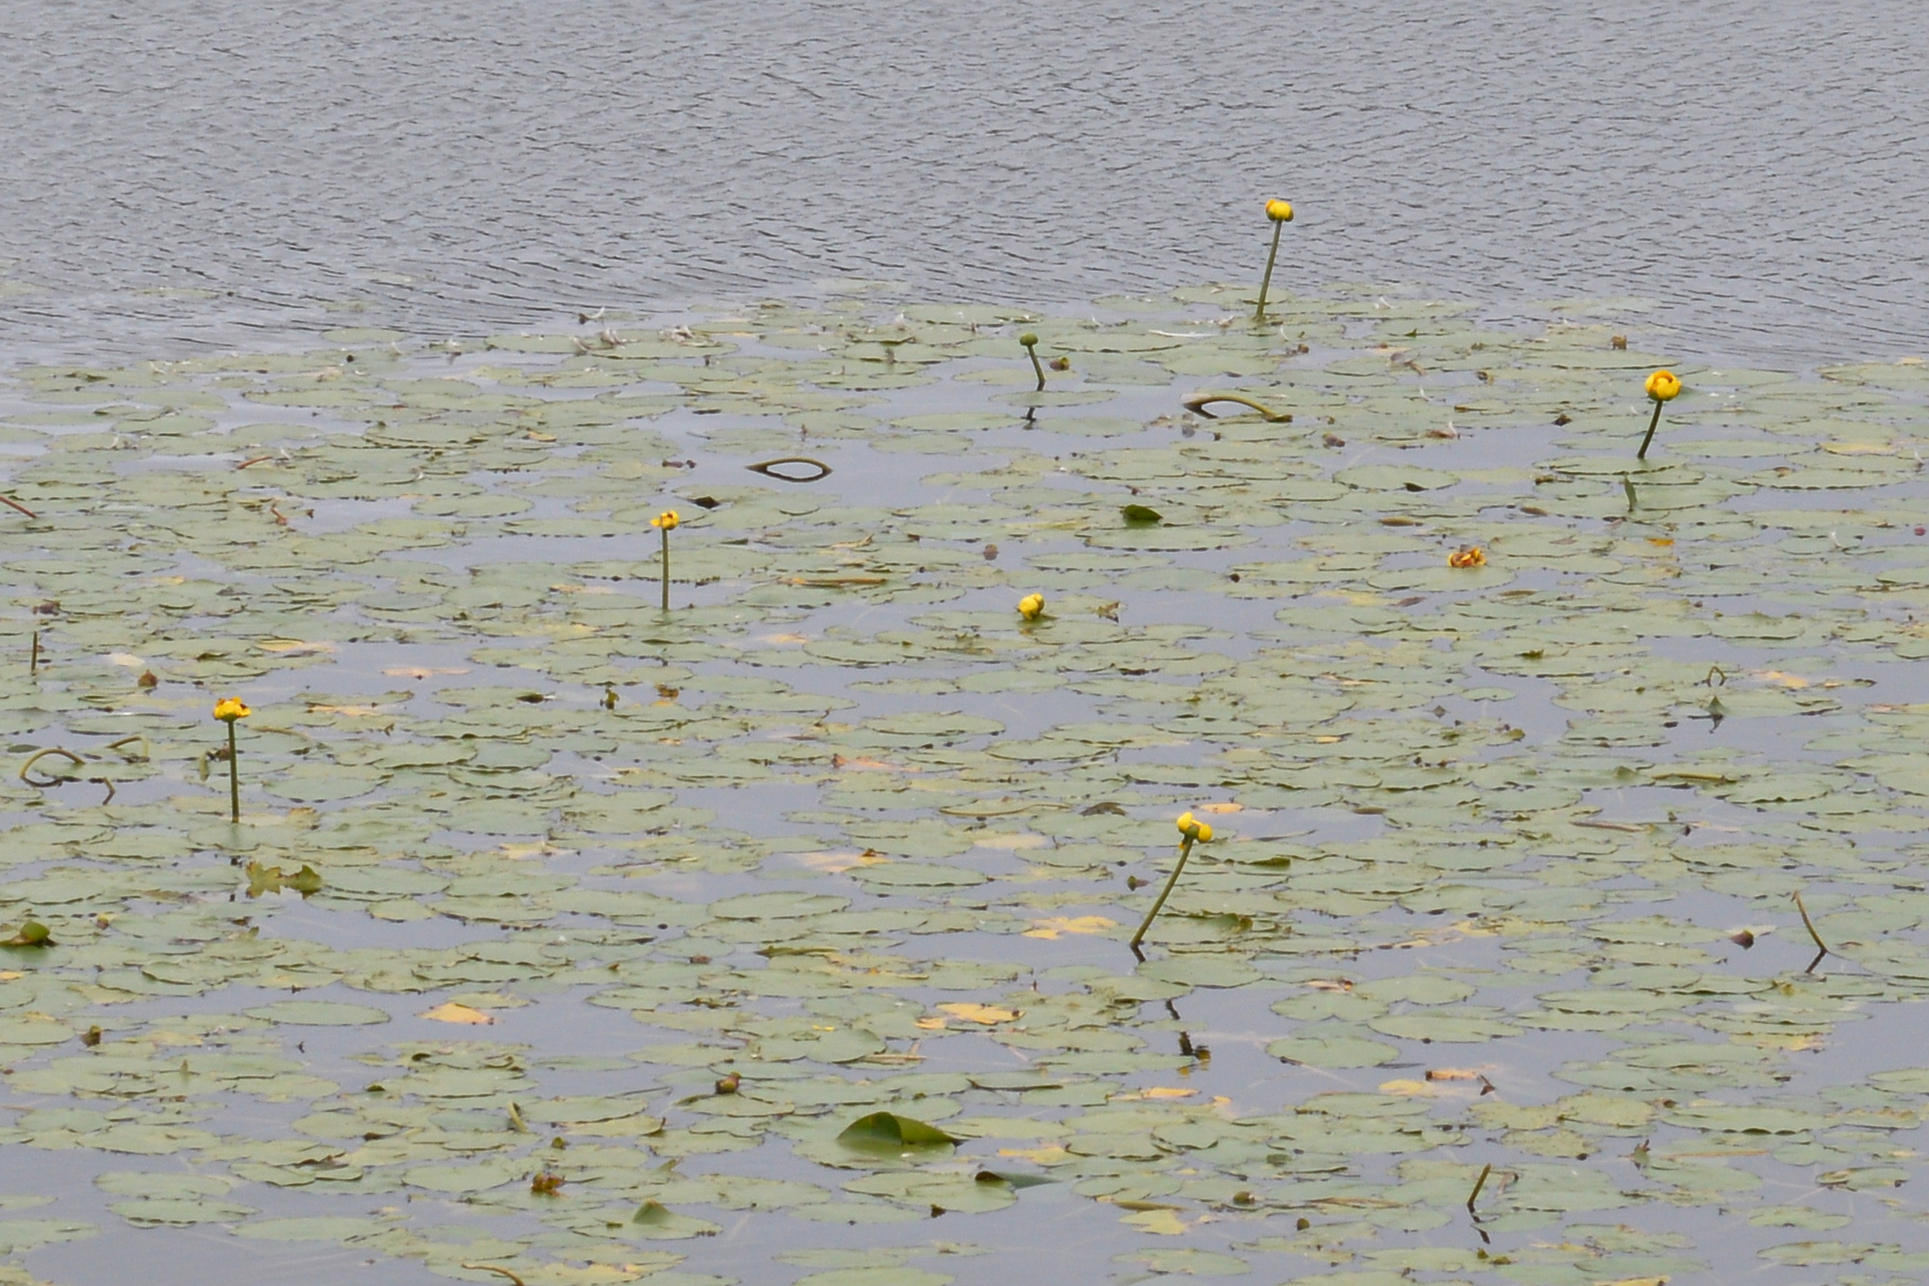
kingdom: Plantae
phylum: Tracheophyta
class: Magnoliopsida
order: Nymphaeales
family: Nymphaeaceae
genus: Nuphar
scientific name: Nuphar variegata
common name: Beaver-root
